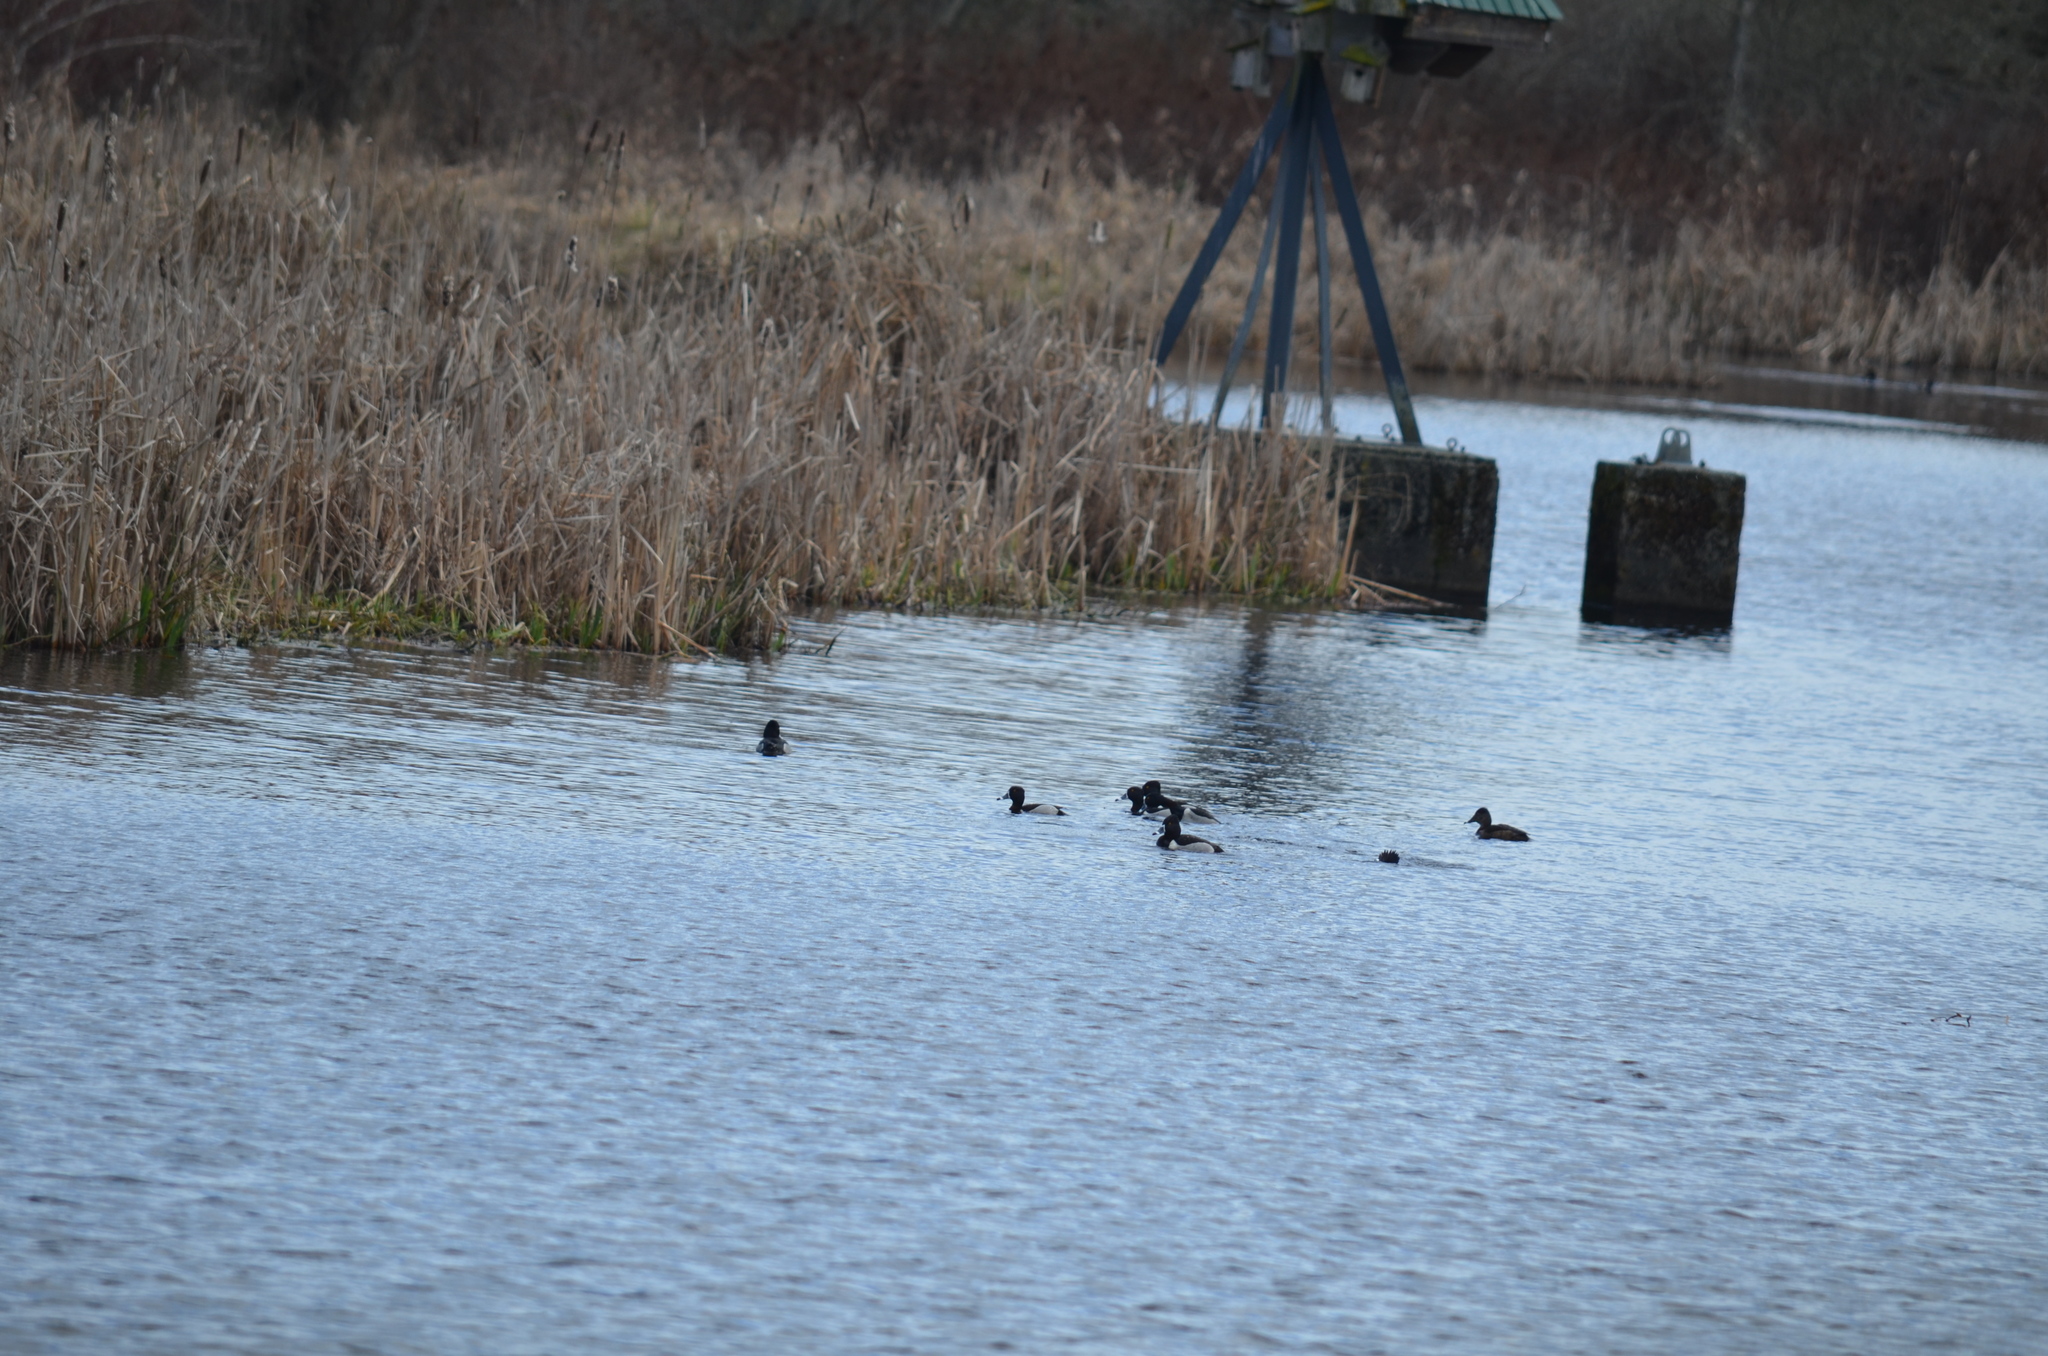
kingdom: Animalia
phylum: Chordata
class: Aves
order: Anseriformes
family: Anatidae
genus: Aythya
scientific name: Aythya collaris
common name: Ring-necked duck
